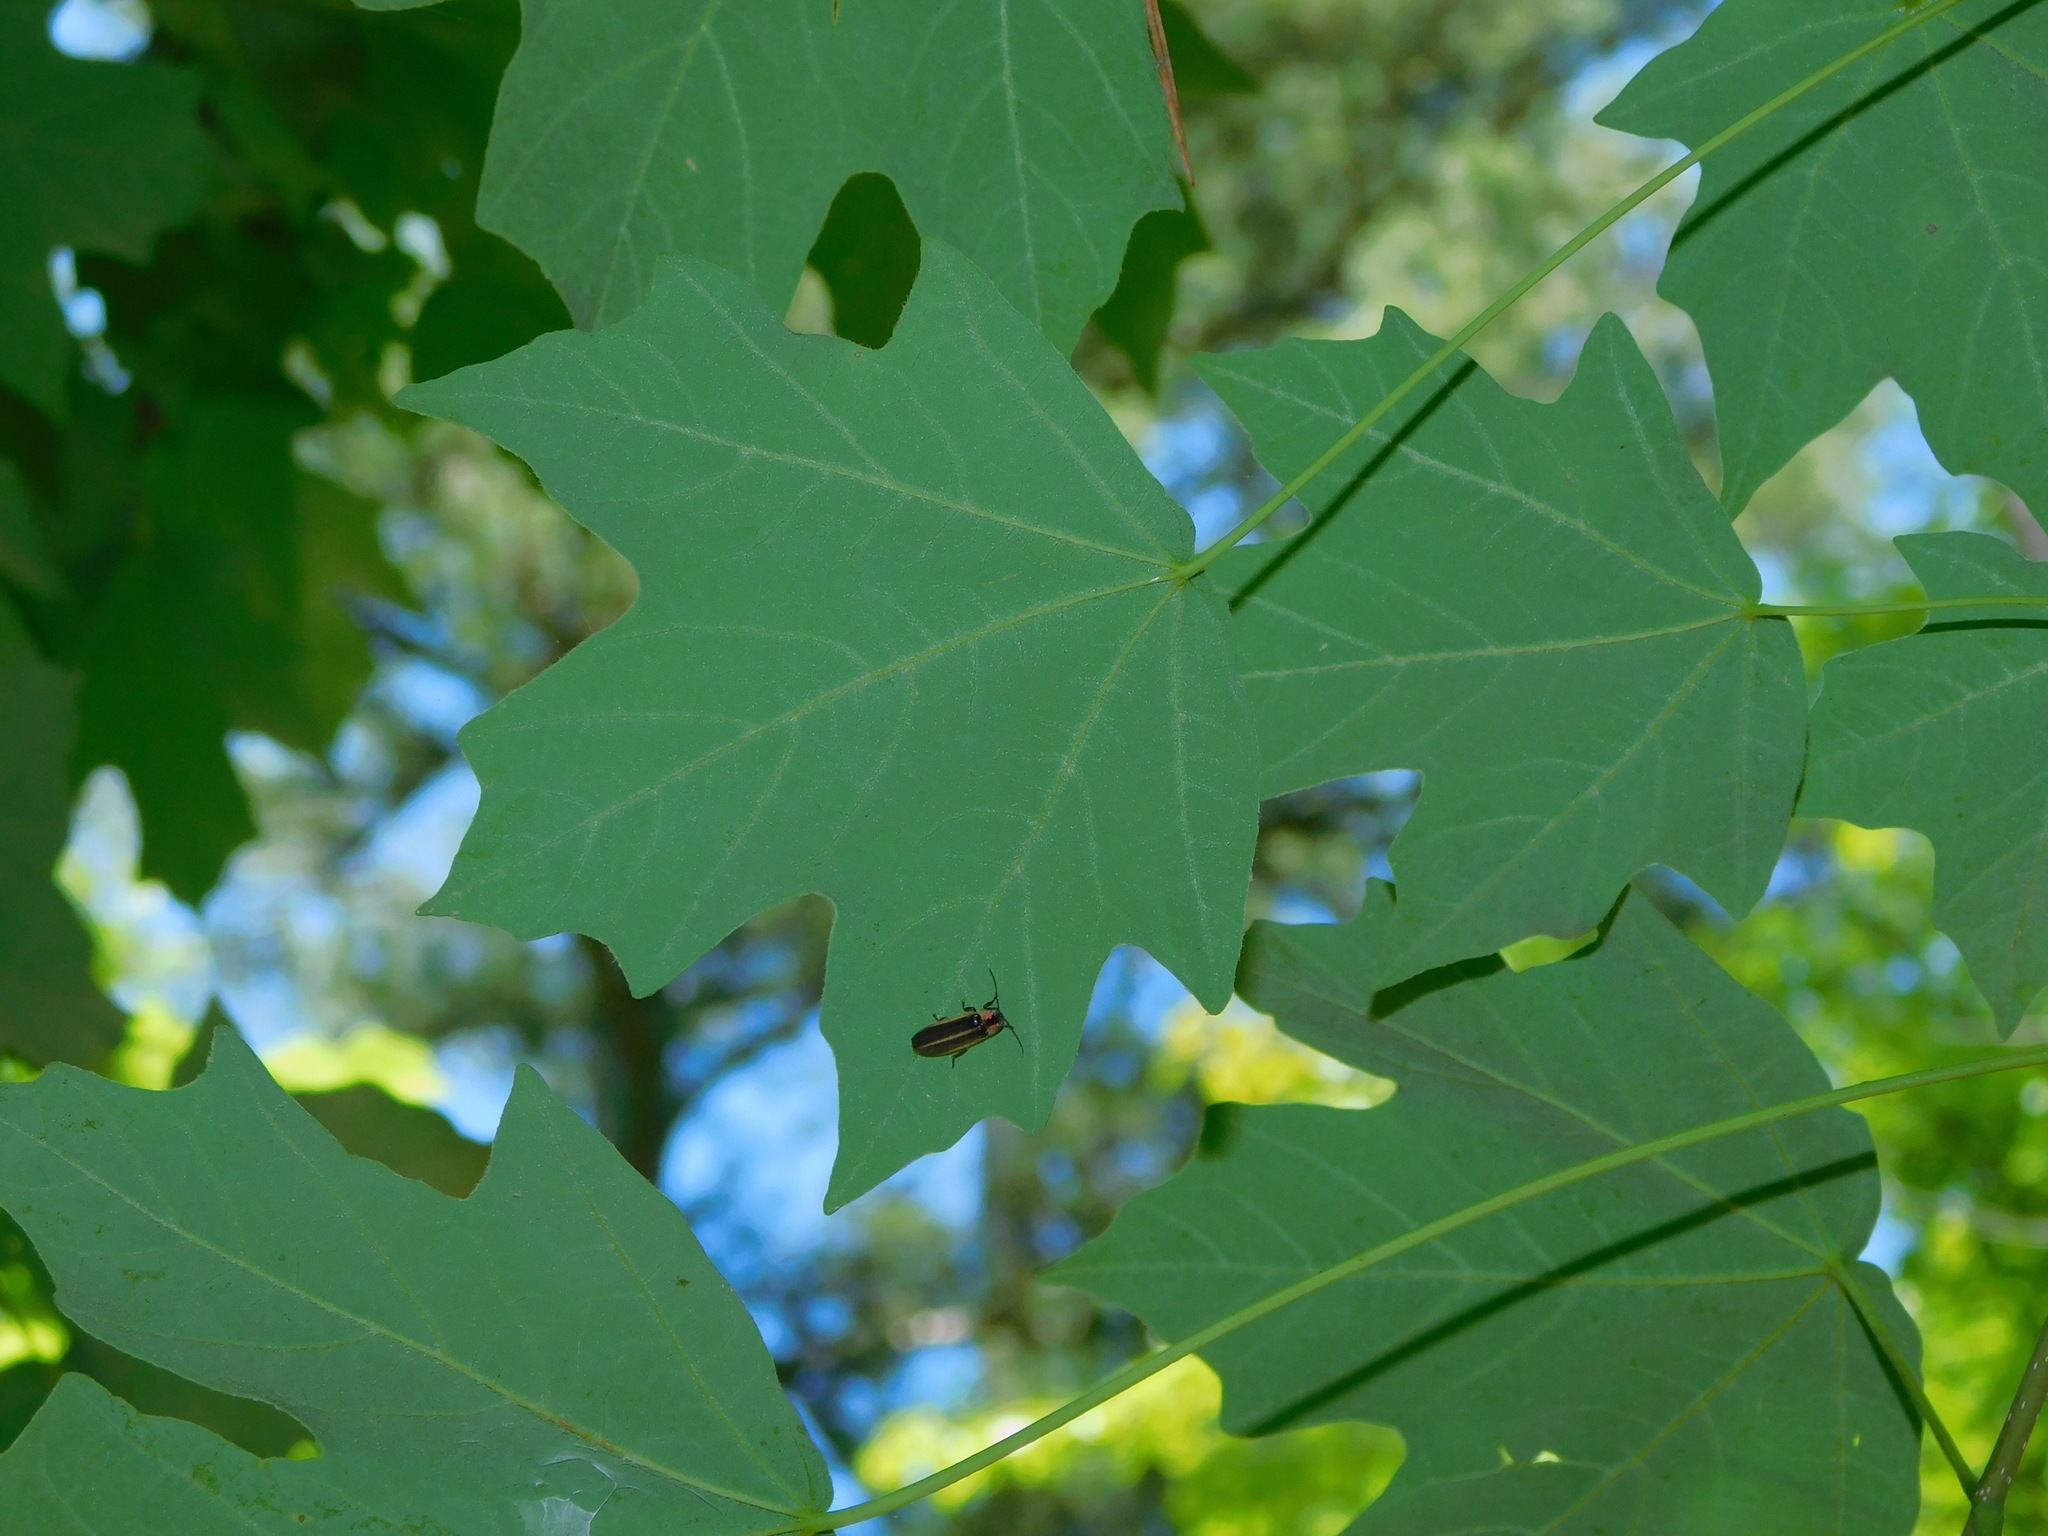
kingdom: Animalia
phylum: Arthropoda
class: Insecta
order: Coleoptera
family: Lampyridae
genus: Photinus
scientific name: Photinus pyralis
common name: Big dipper firefly
